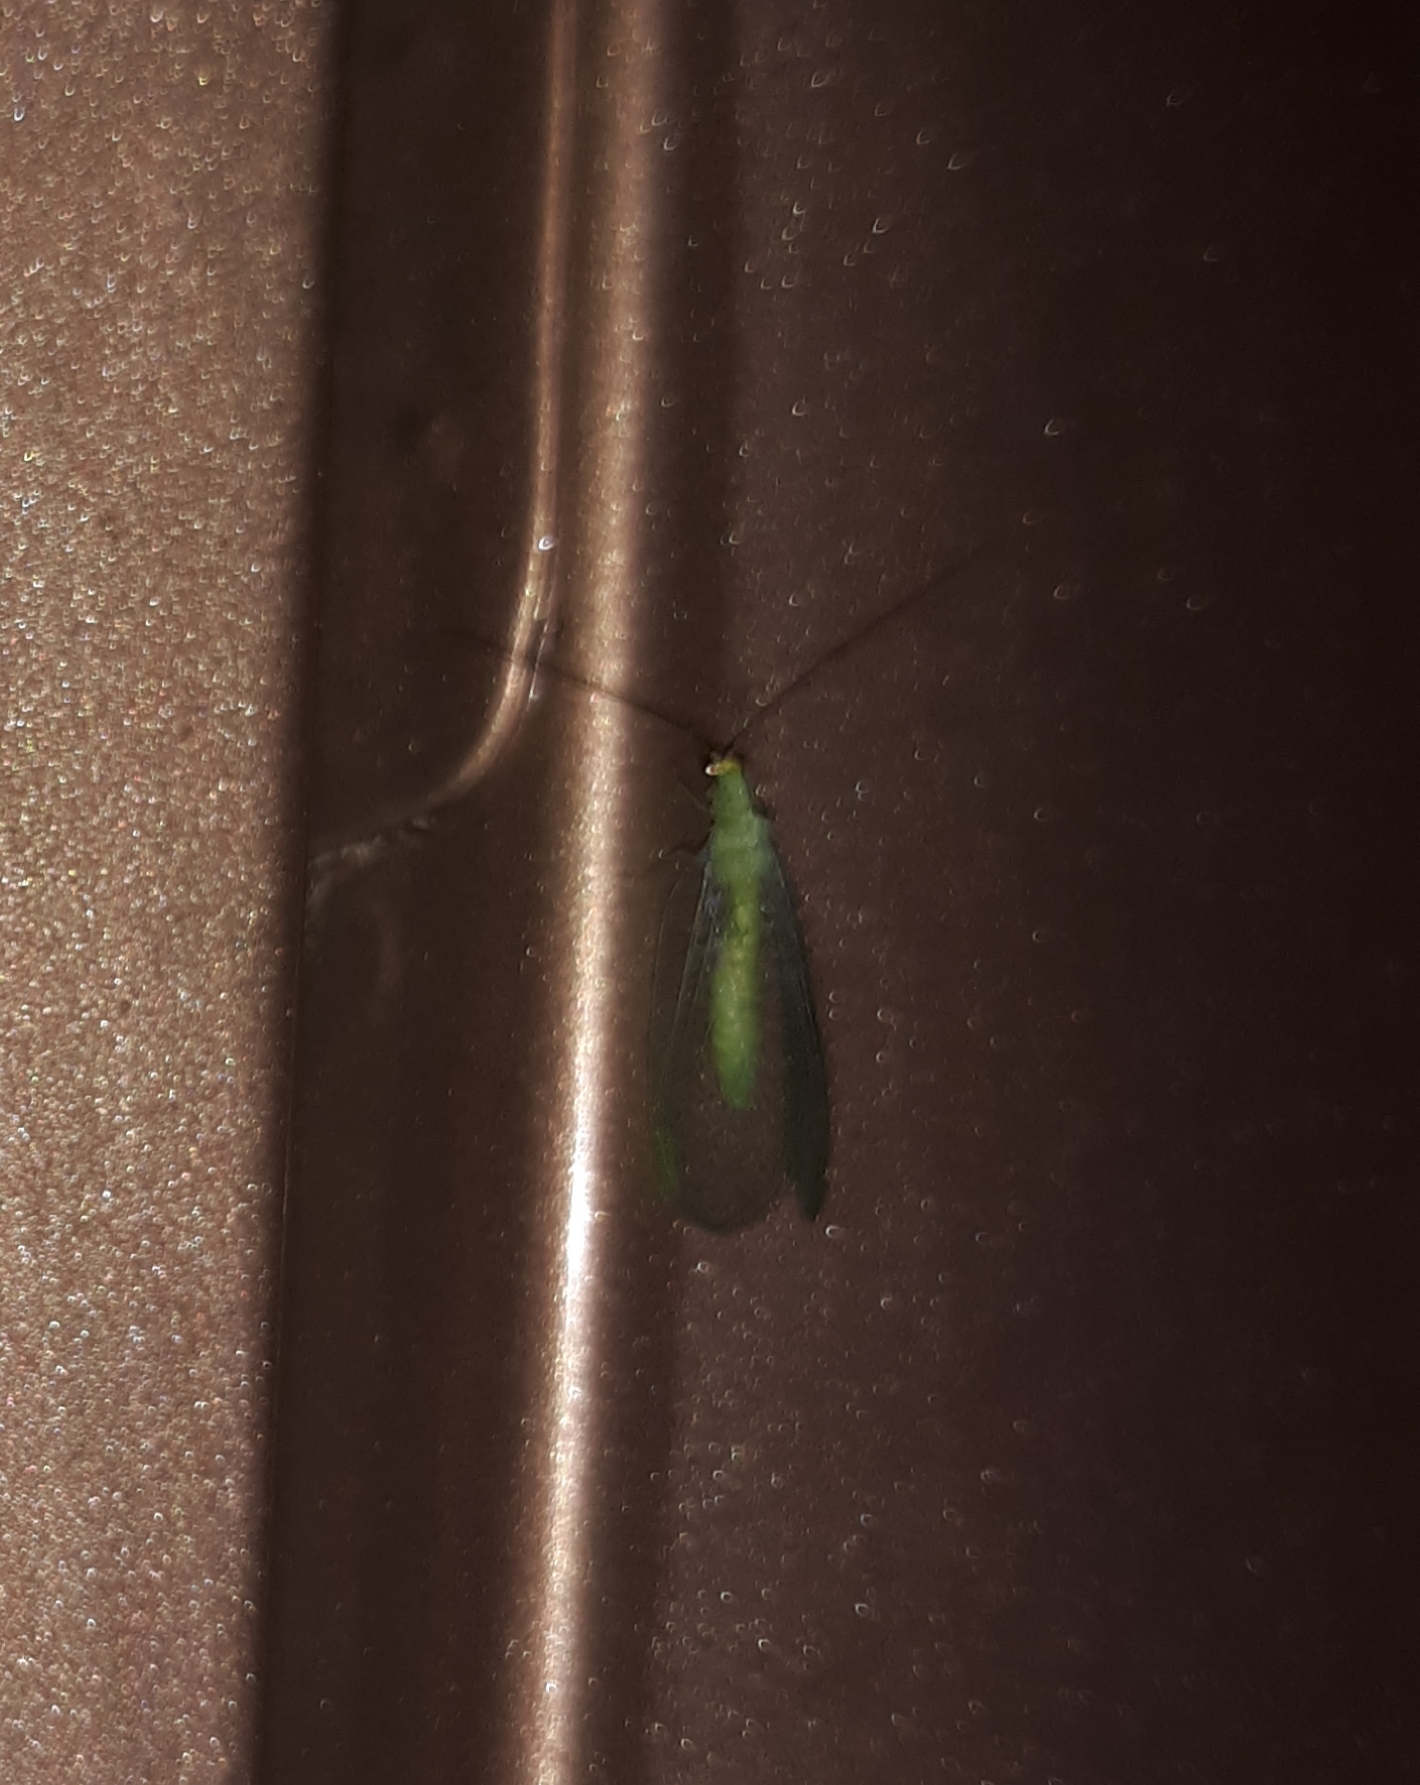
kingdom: Animalia
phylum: Arthropoda
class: Insecta
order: Neuroptera
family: Chrysopidae
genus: Chrysopa
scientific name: Chrysopa oculata
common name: Golden-eyed lacewing
